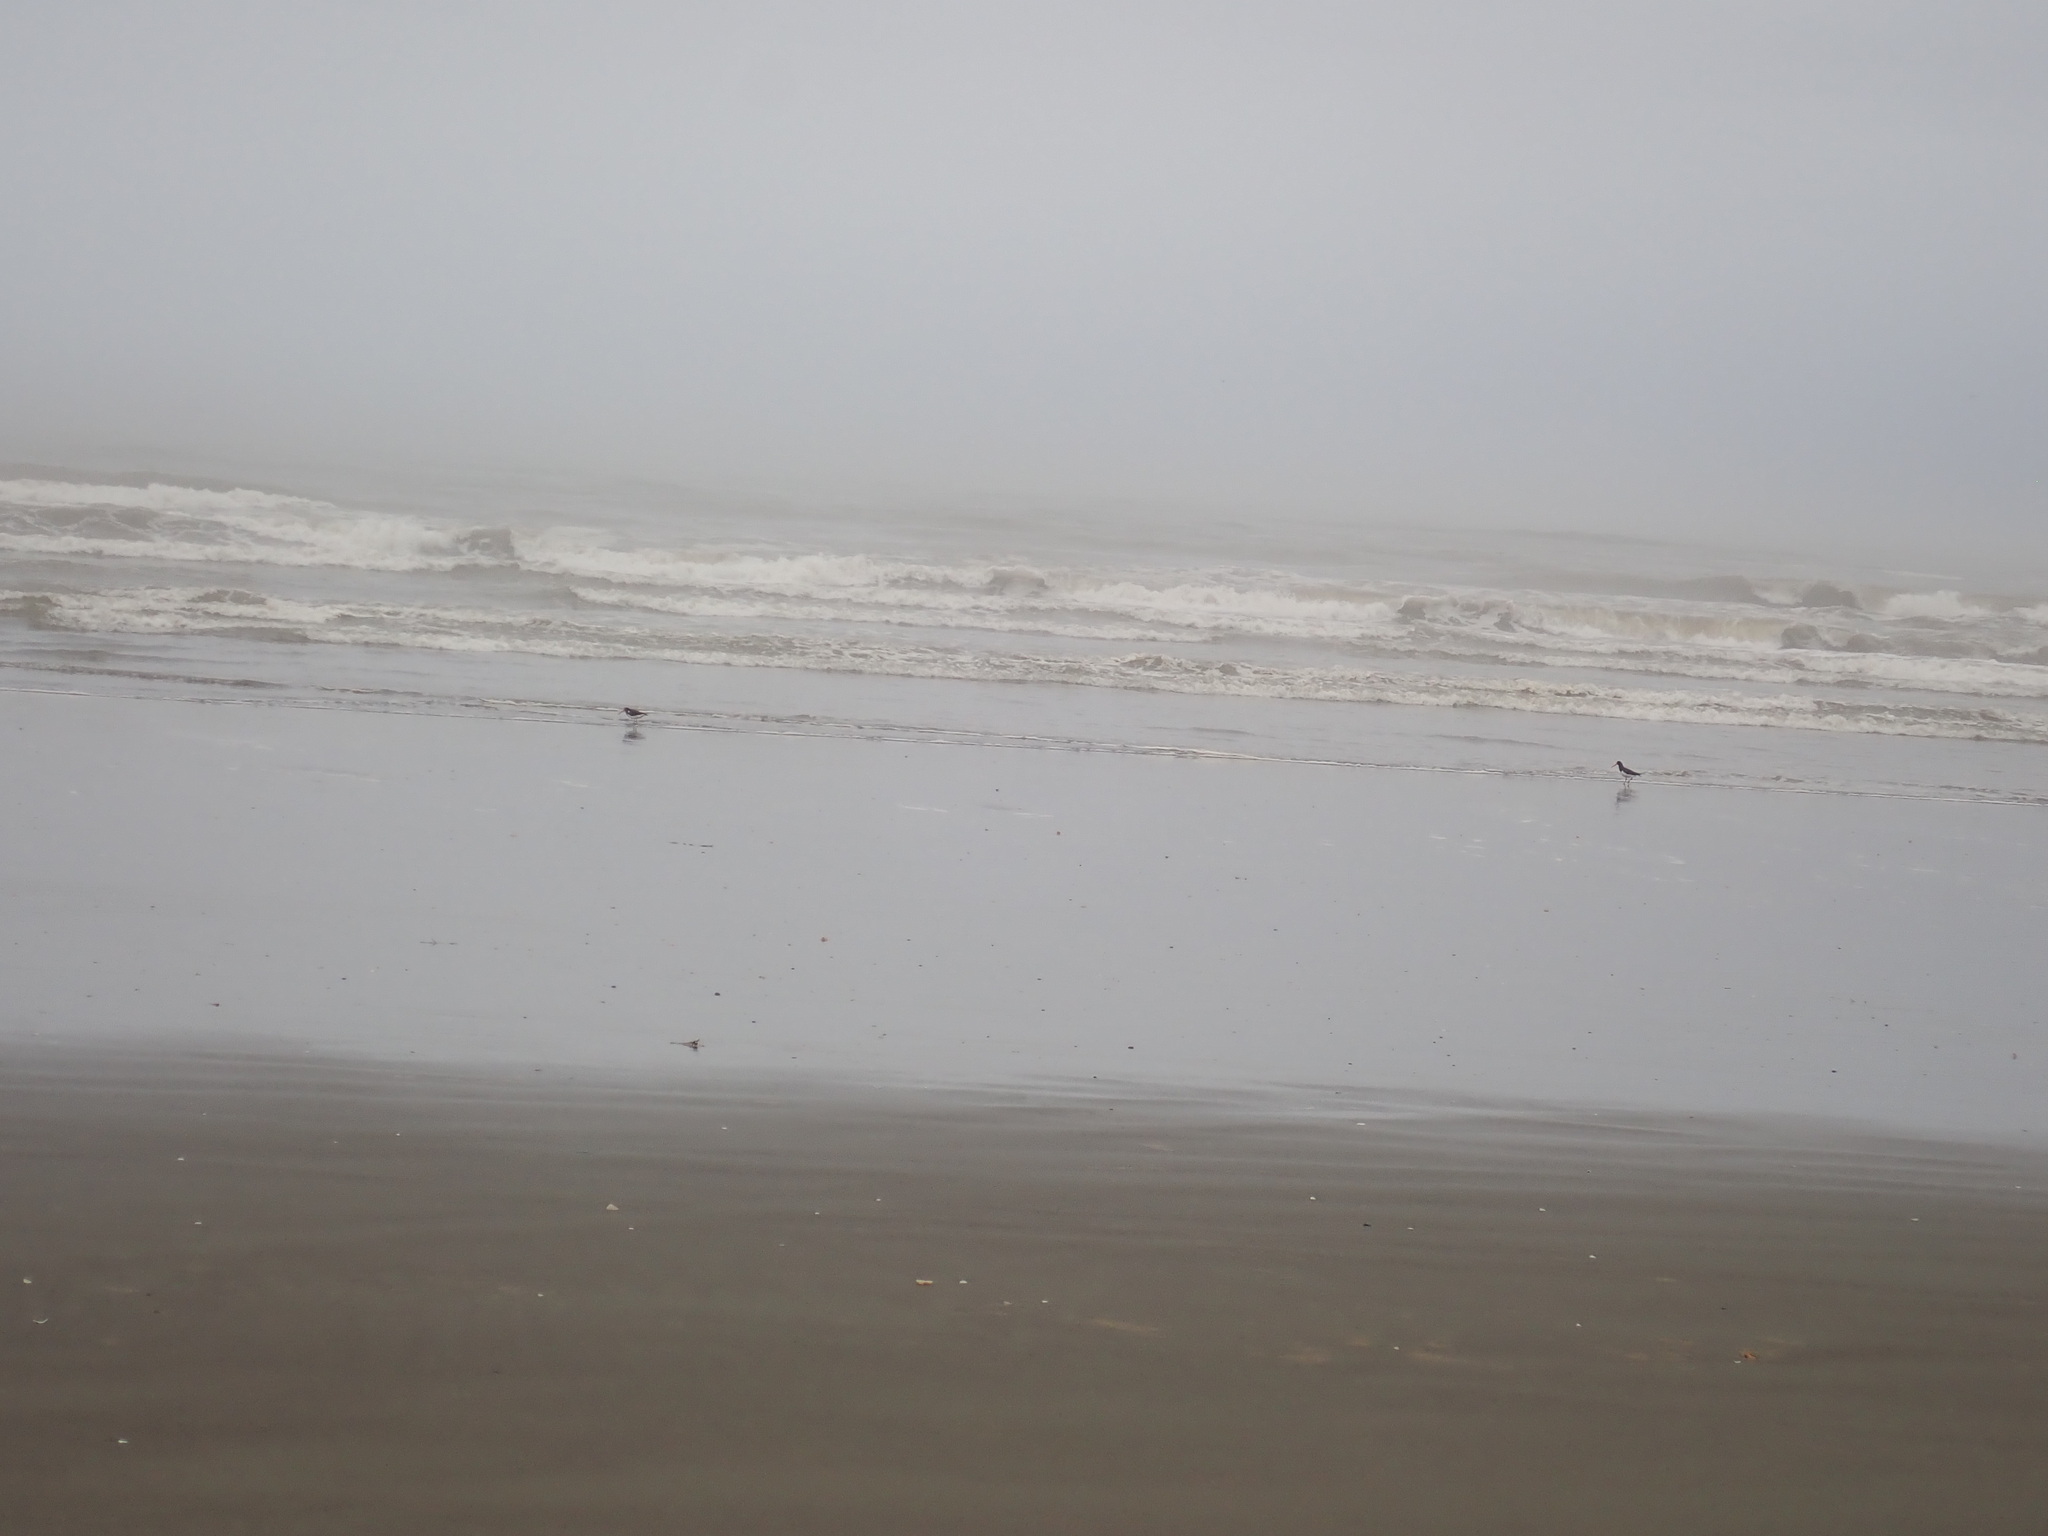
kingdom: Animalia
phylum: Chordata
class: Aves
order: Charadriiformes
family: Haematopodidae
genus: Haematopus
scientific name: Haematopus finschi
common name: South island oystercatcher
